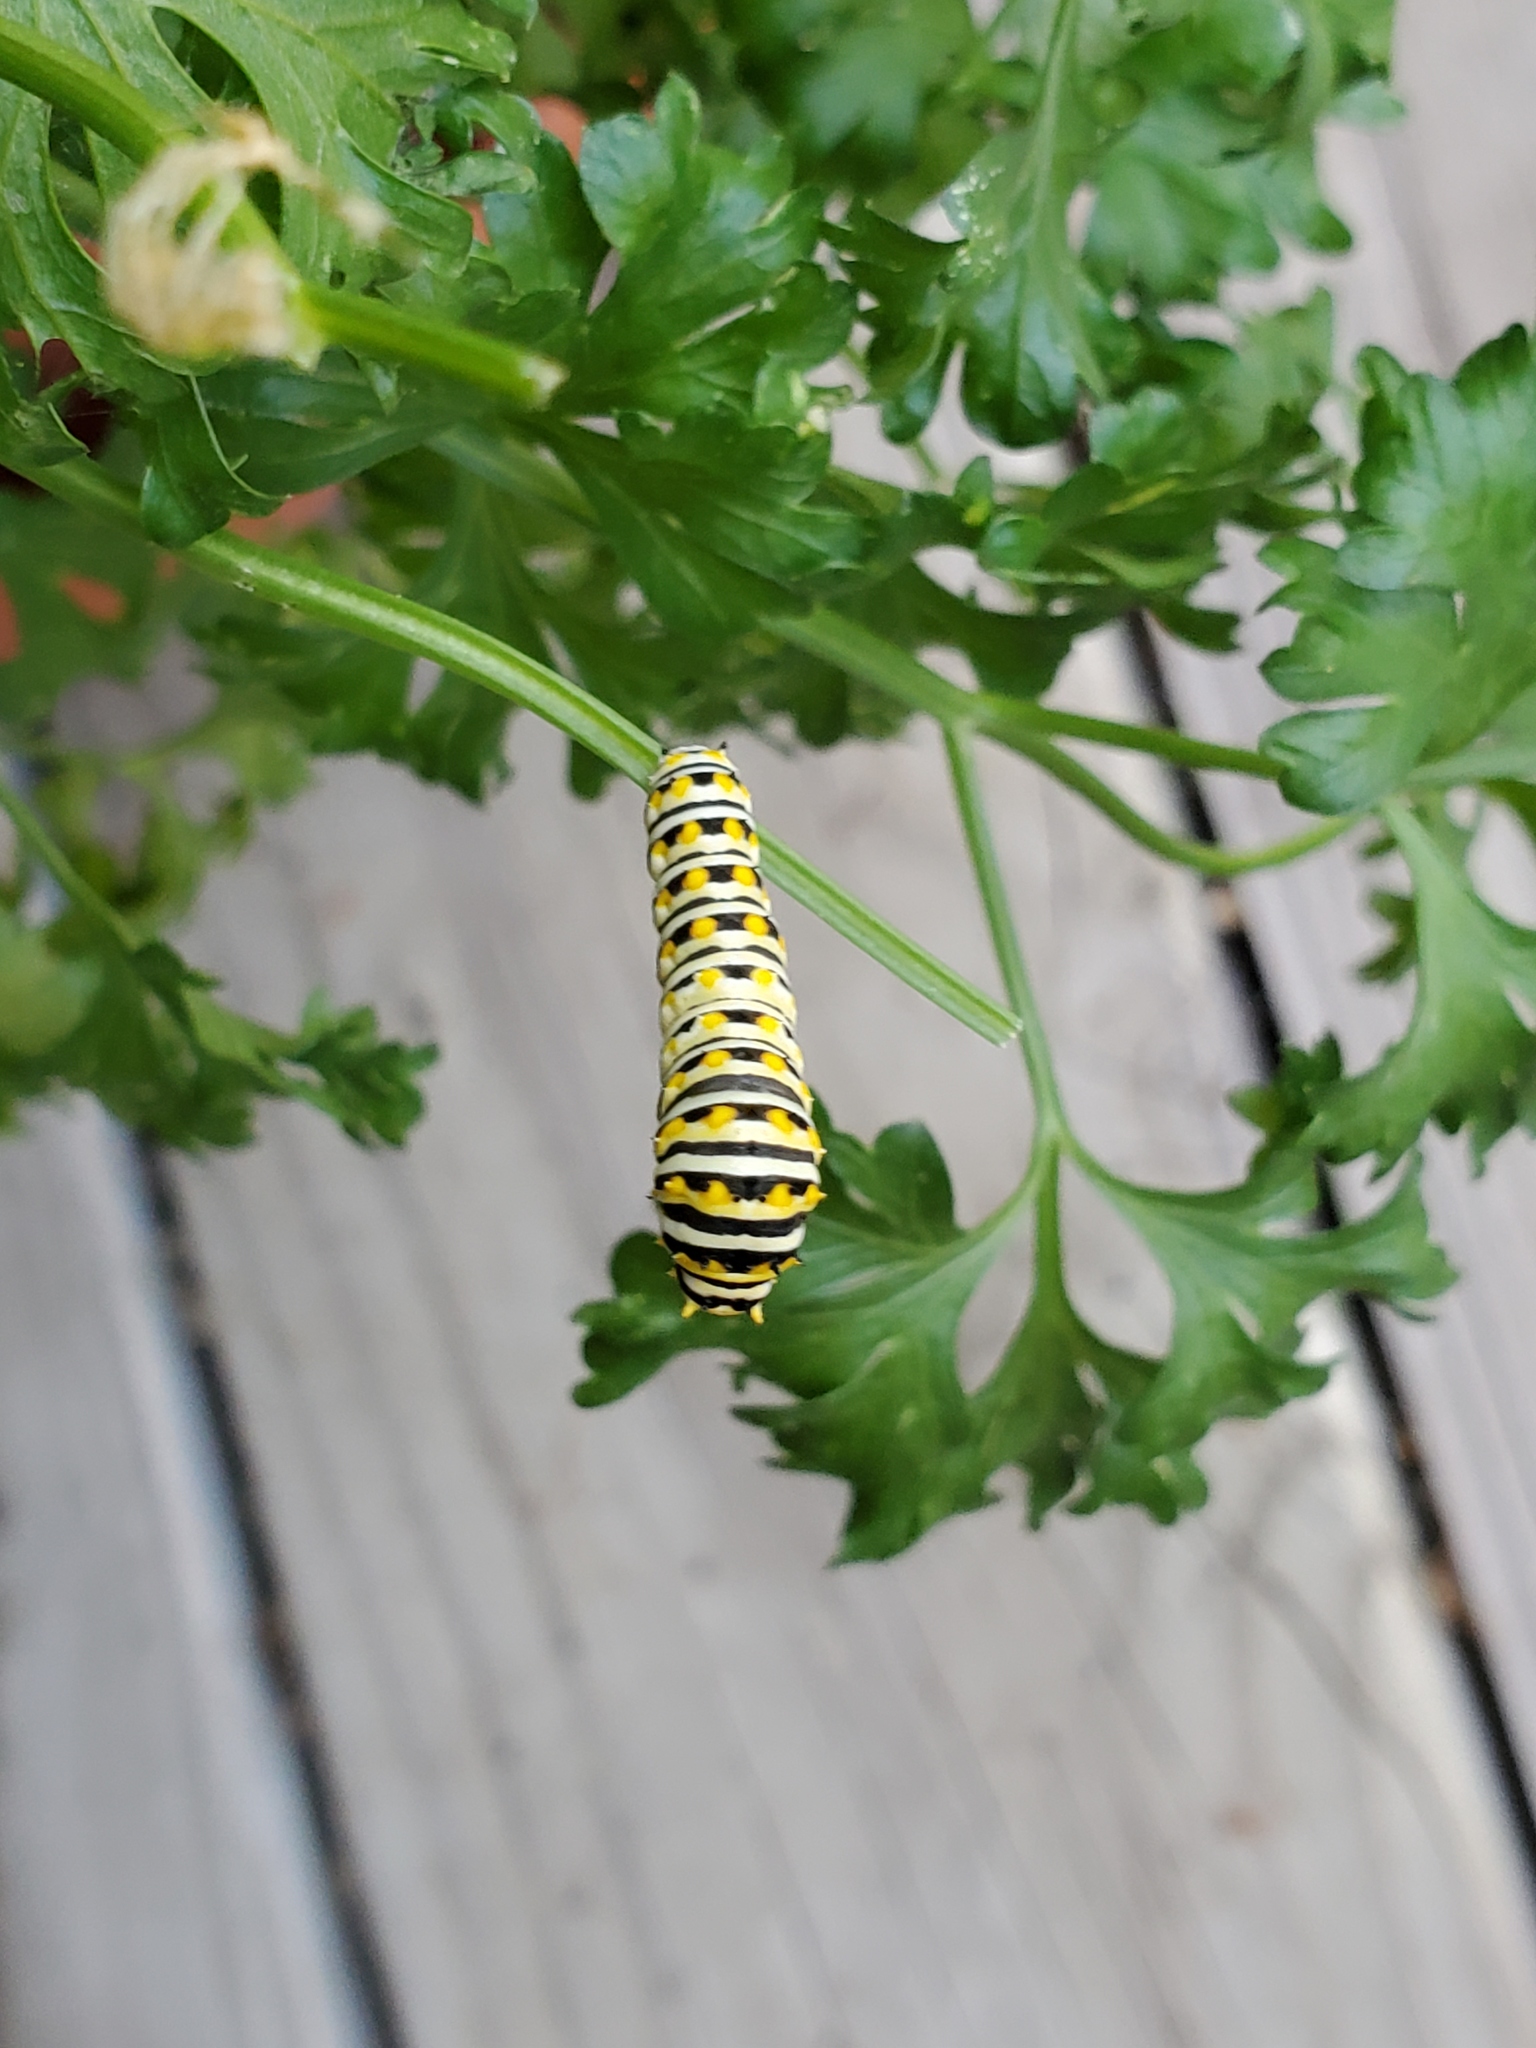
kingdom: Animalia
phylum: Arthropoda
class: Insecta
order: Lepidoptera
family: Papilionidae
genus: Papilio
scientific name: Papilio polyxenes
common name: Black swallowtail
